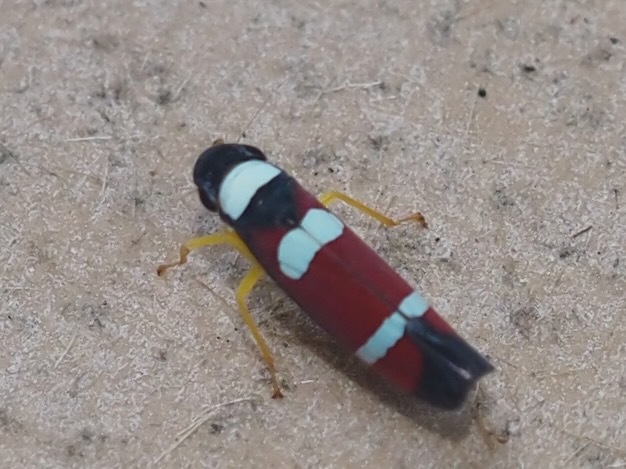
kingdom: Animalia
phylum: Arthropoda
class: Insecta
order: Hemiptera
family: Cicadellidae
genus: Erythrogonia
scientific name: Erythrogonia phoenicea
